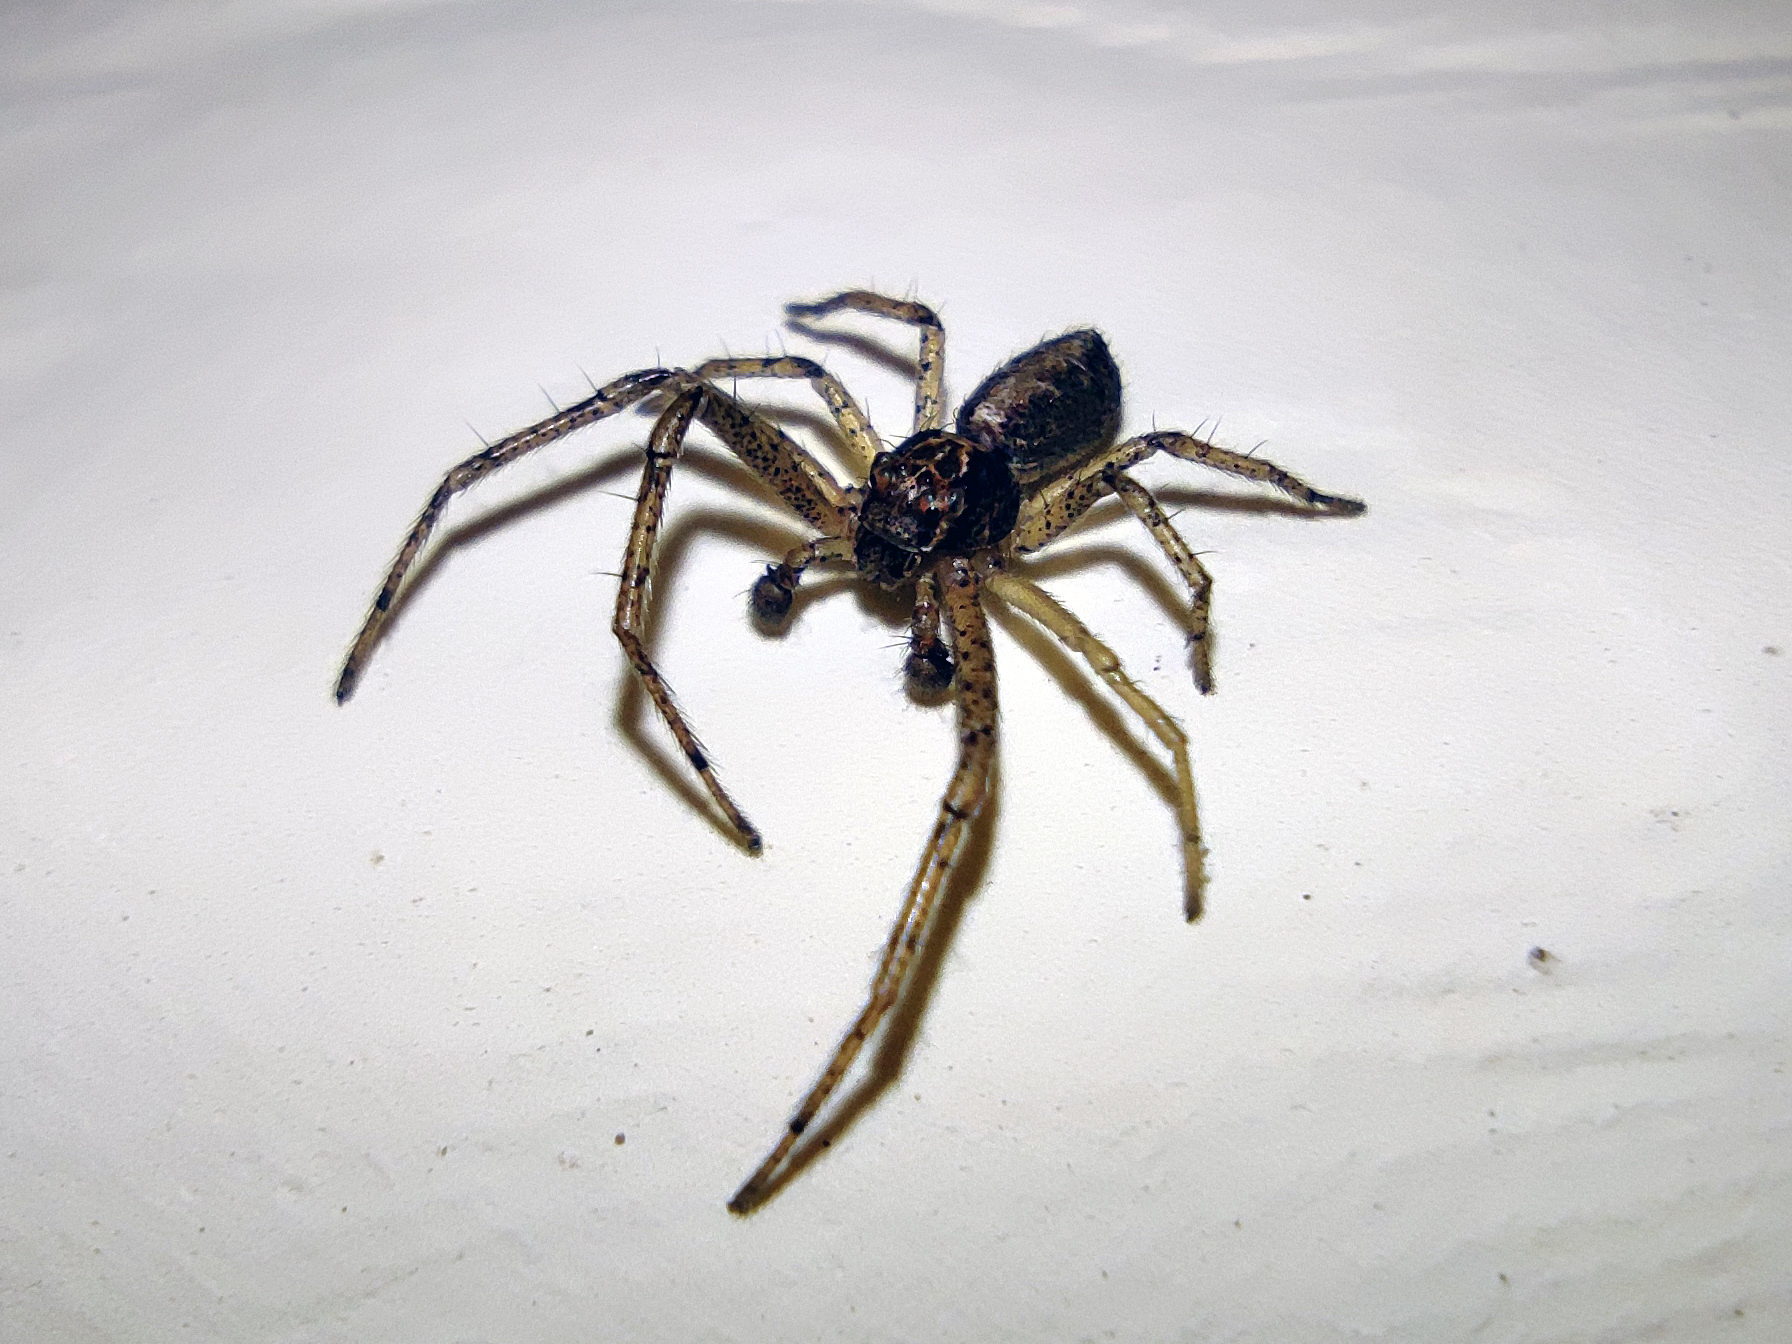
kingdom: Animalia
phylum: Arthropoda
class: Arachnida
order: Araneae
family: Thomisidae
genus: Tmarus
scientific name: Tmarus piger
